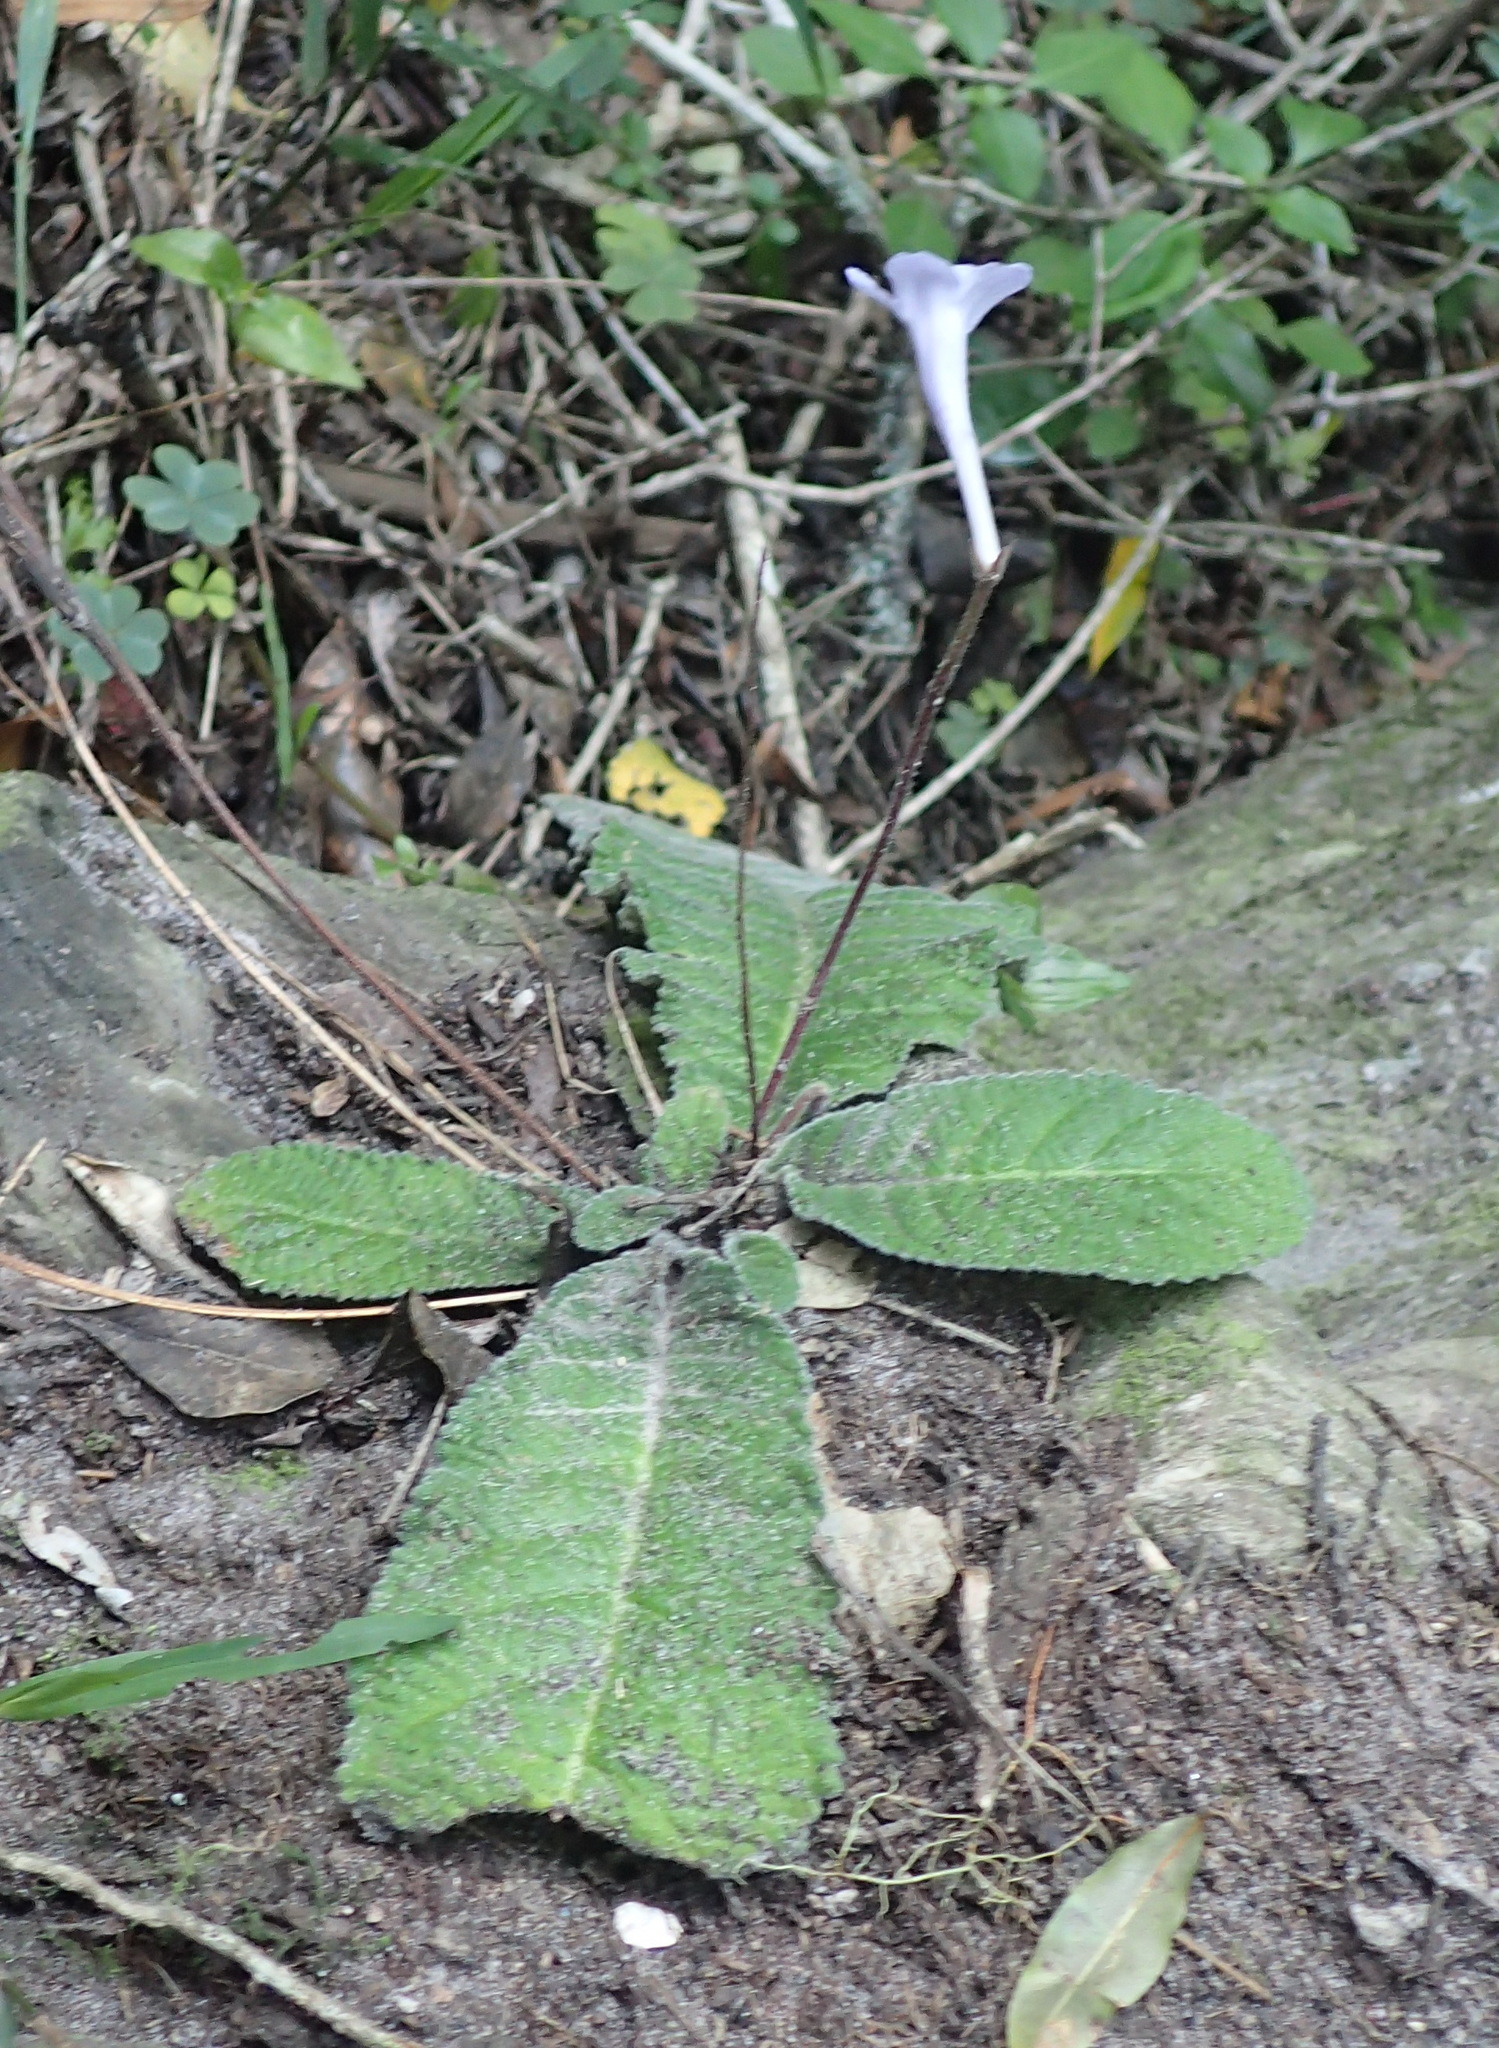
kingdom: Plantae
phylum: Tracheophyta
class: Magnoliopsida
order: Lamiales
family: Gesneriaceae
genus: Streptocarpus
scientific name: Streptocarpus rexii
